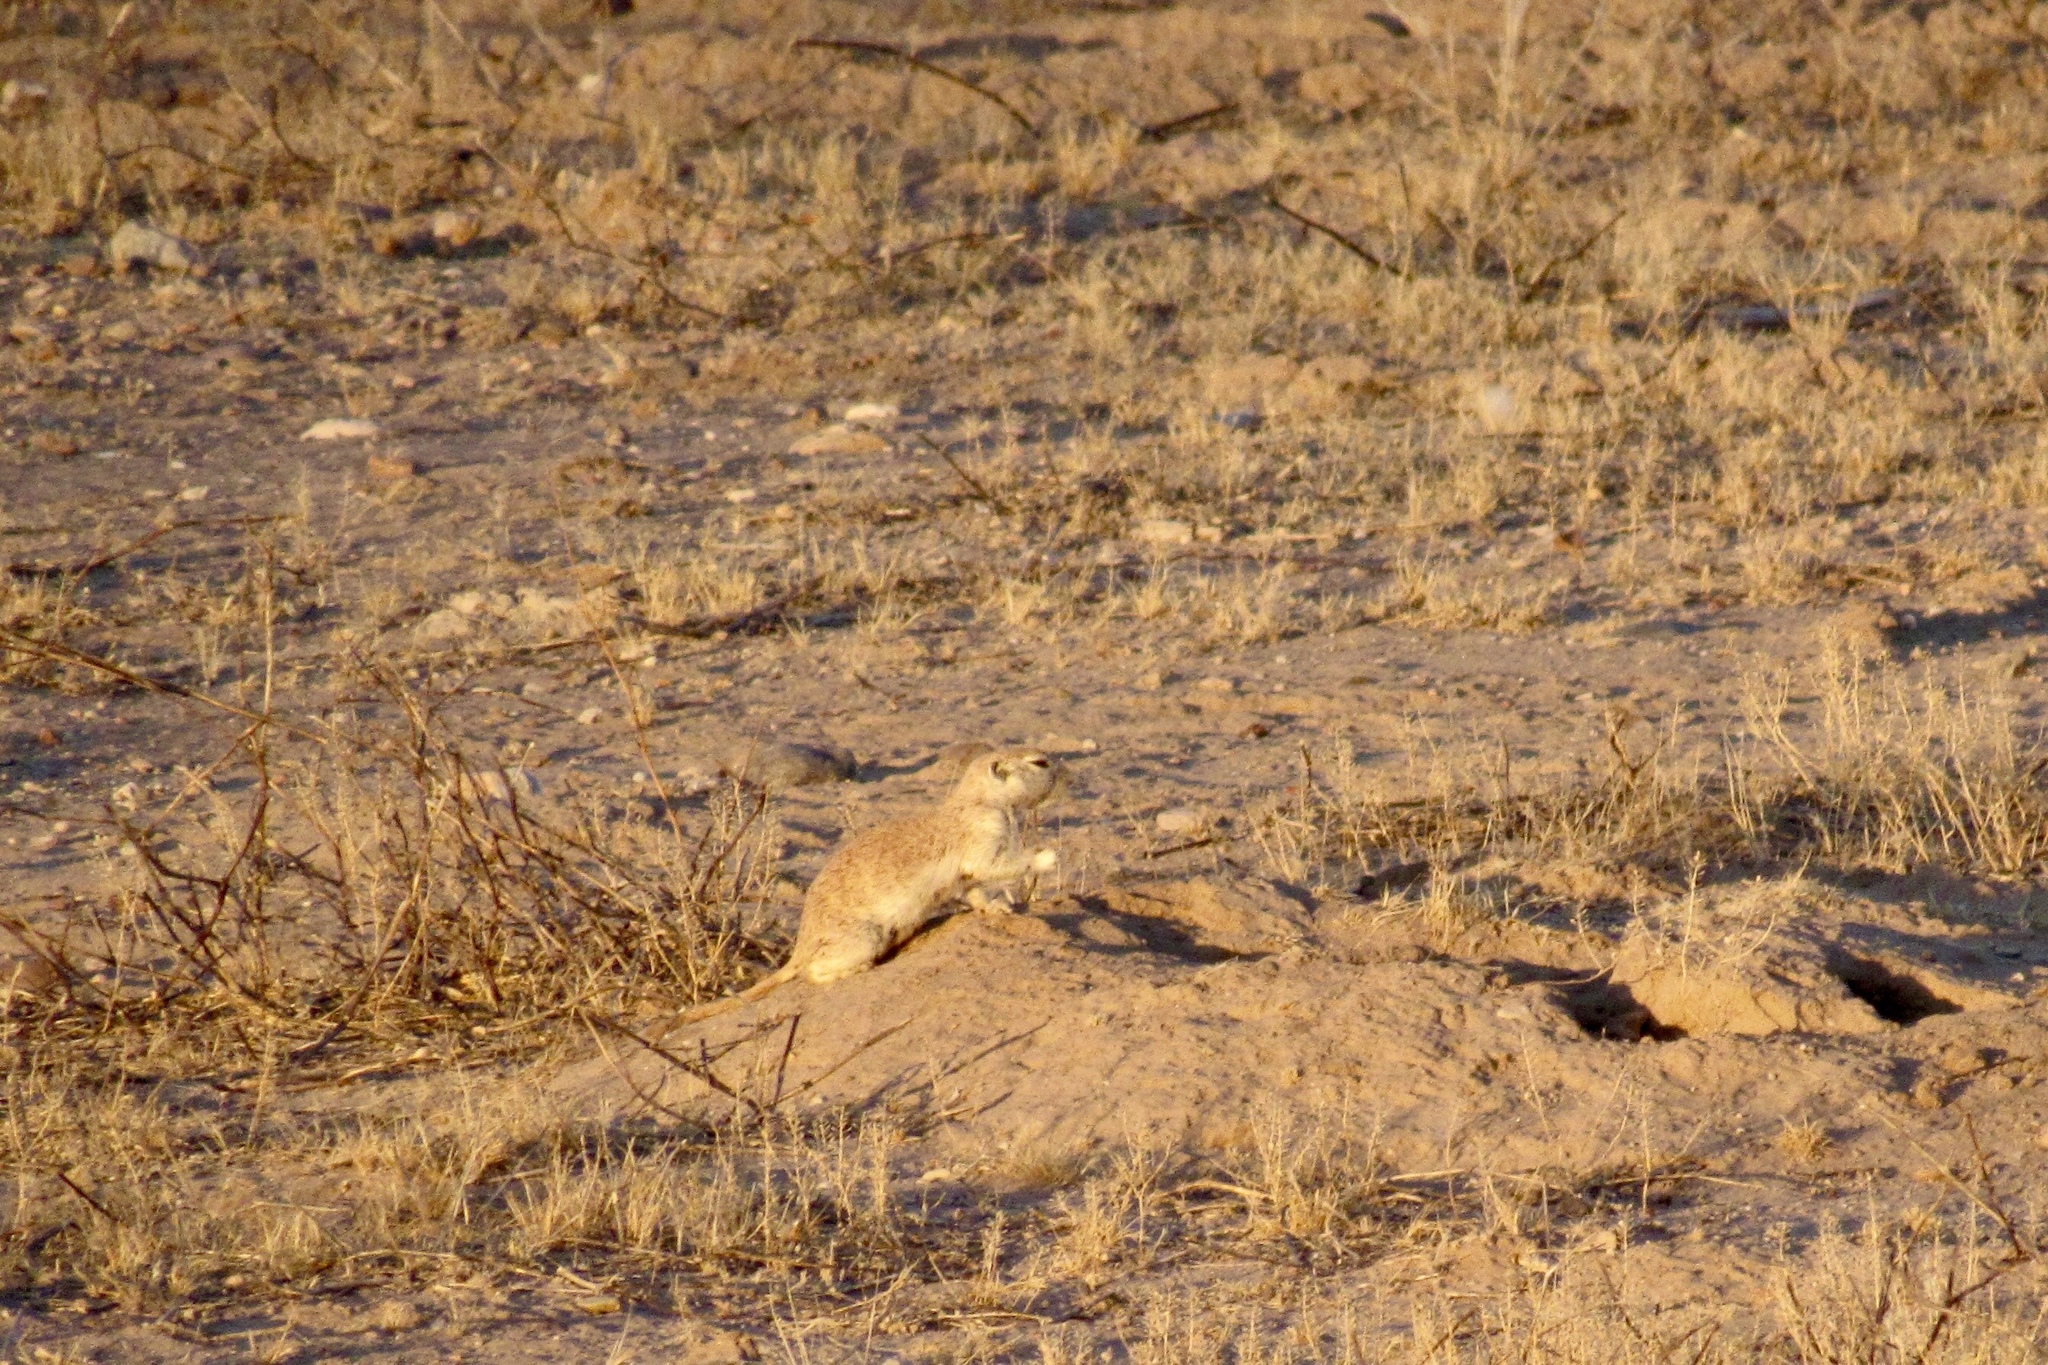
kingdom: Animalia
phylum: Chordata
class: Mammalia
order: Rodentia
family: Sciuridae
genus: Xerospermophilus
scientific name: Xerospermophilus tereticaudus
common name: Round-tailed ground squirrel
